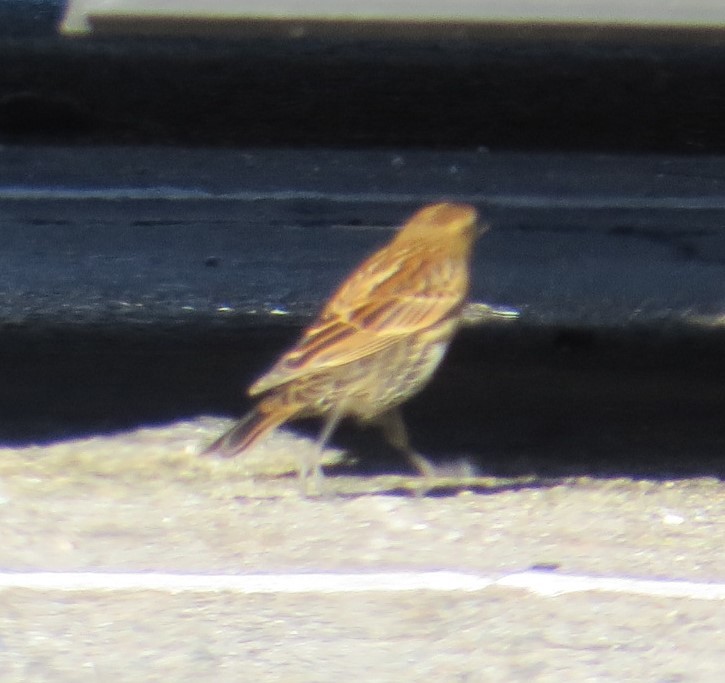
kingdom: Animalia
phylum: Chordata
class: Aves
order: Passeriformes
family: Icteridae
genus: Agelaius
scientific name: Agelaius phoeniceus
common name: Red-winged blackbird
